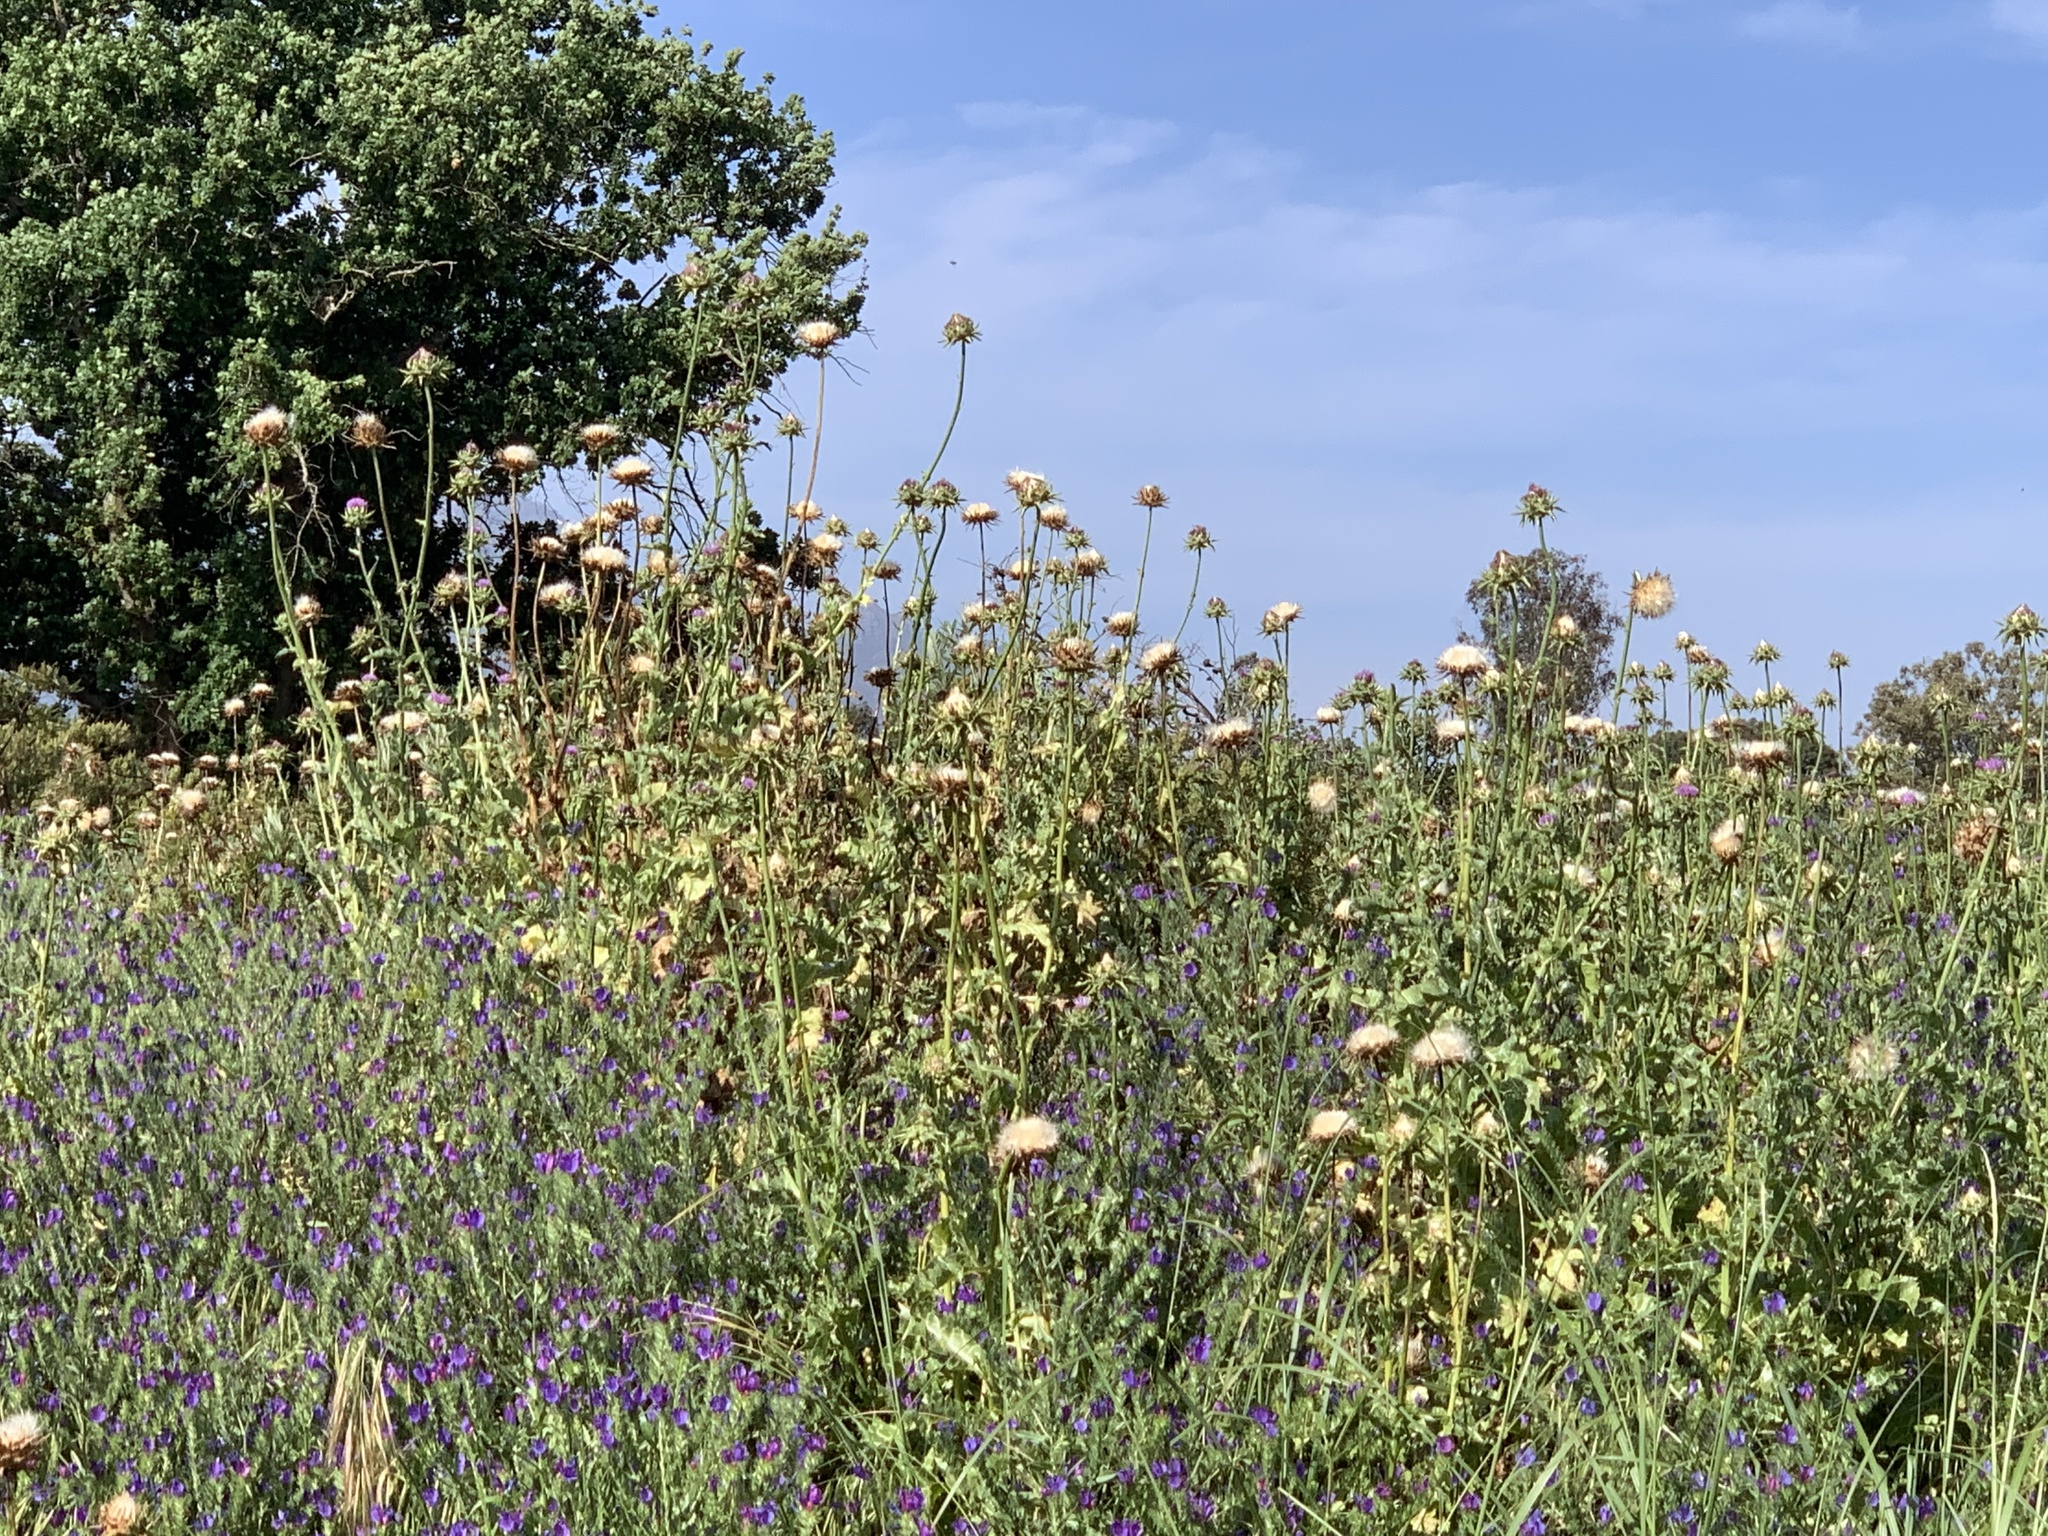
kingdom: Plantae
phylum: Tracheophyta
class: Magnoliopsida
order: Asterales
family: Asteraceae
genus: Silybum
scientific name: Silybum marianum
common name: Milk thistle
